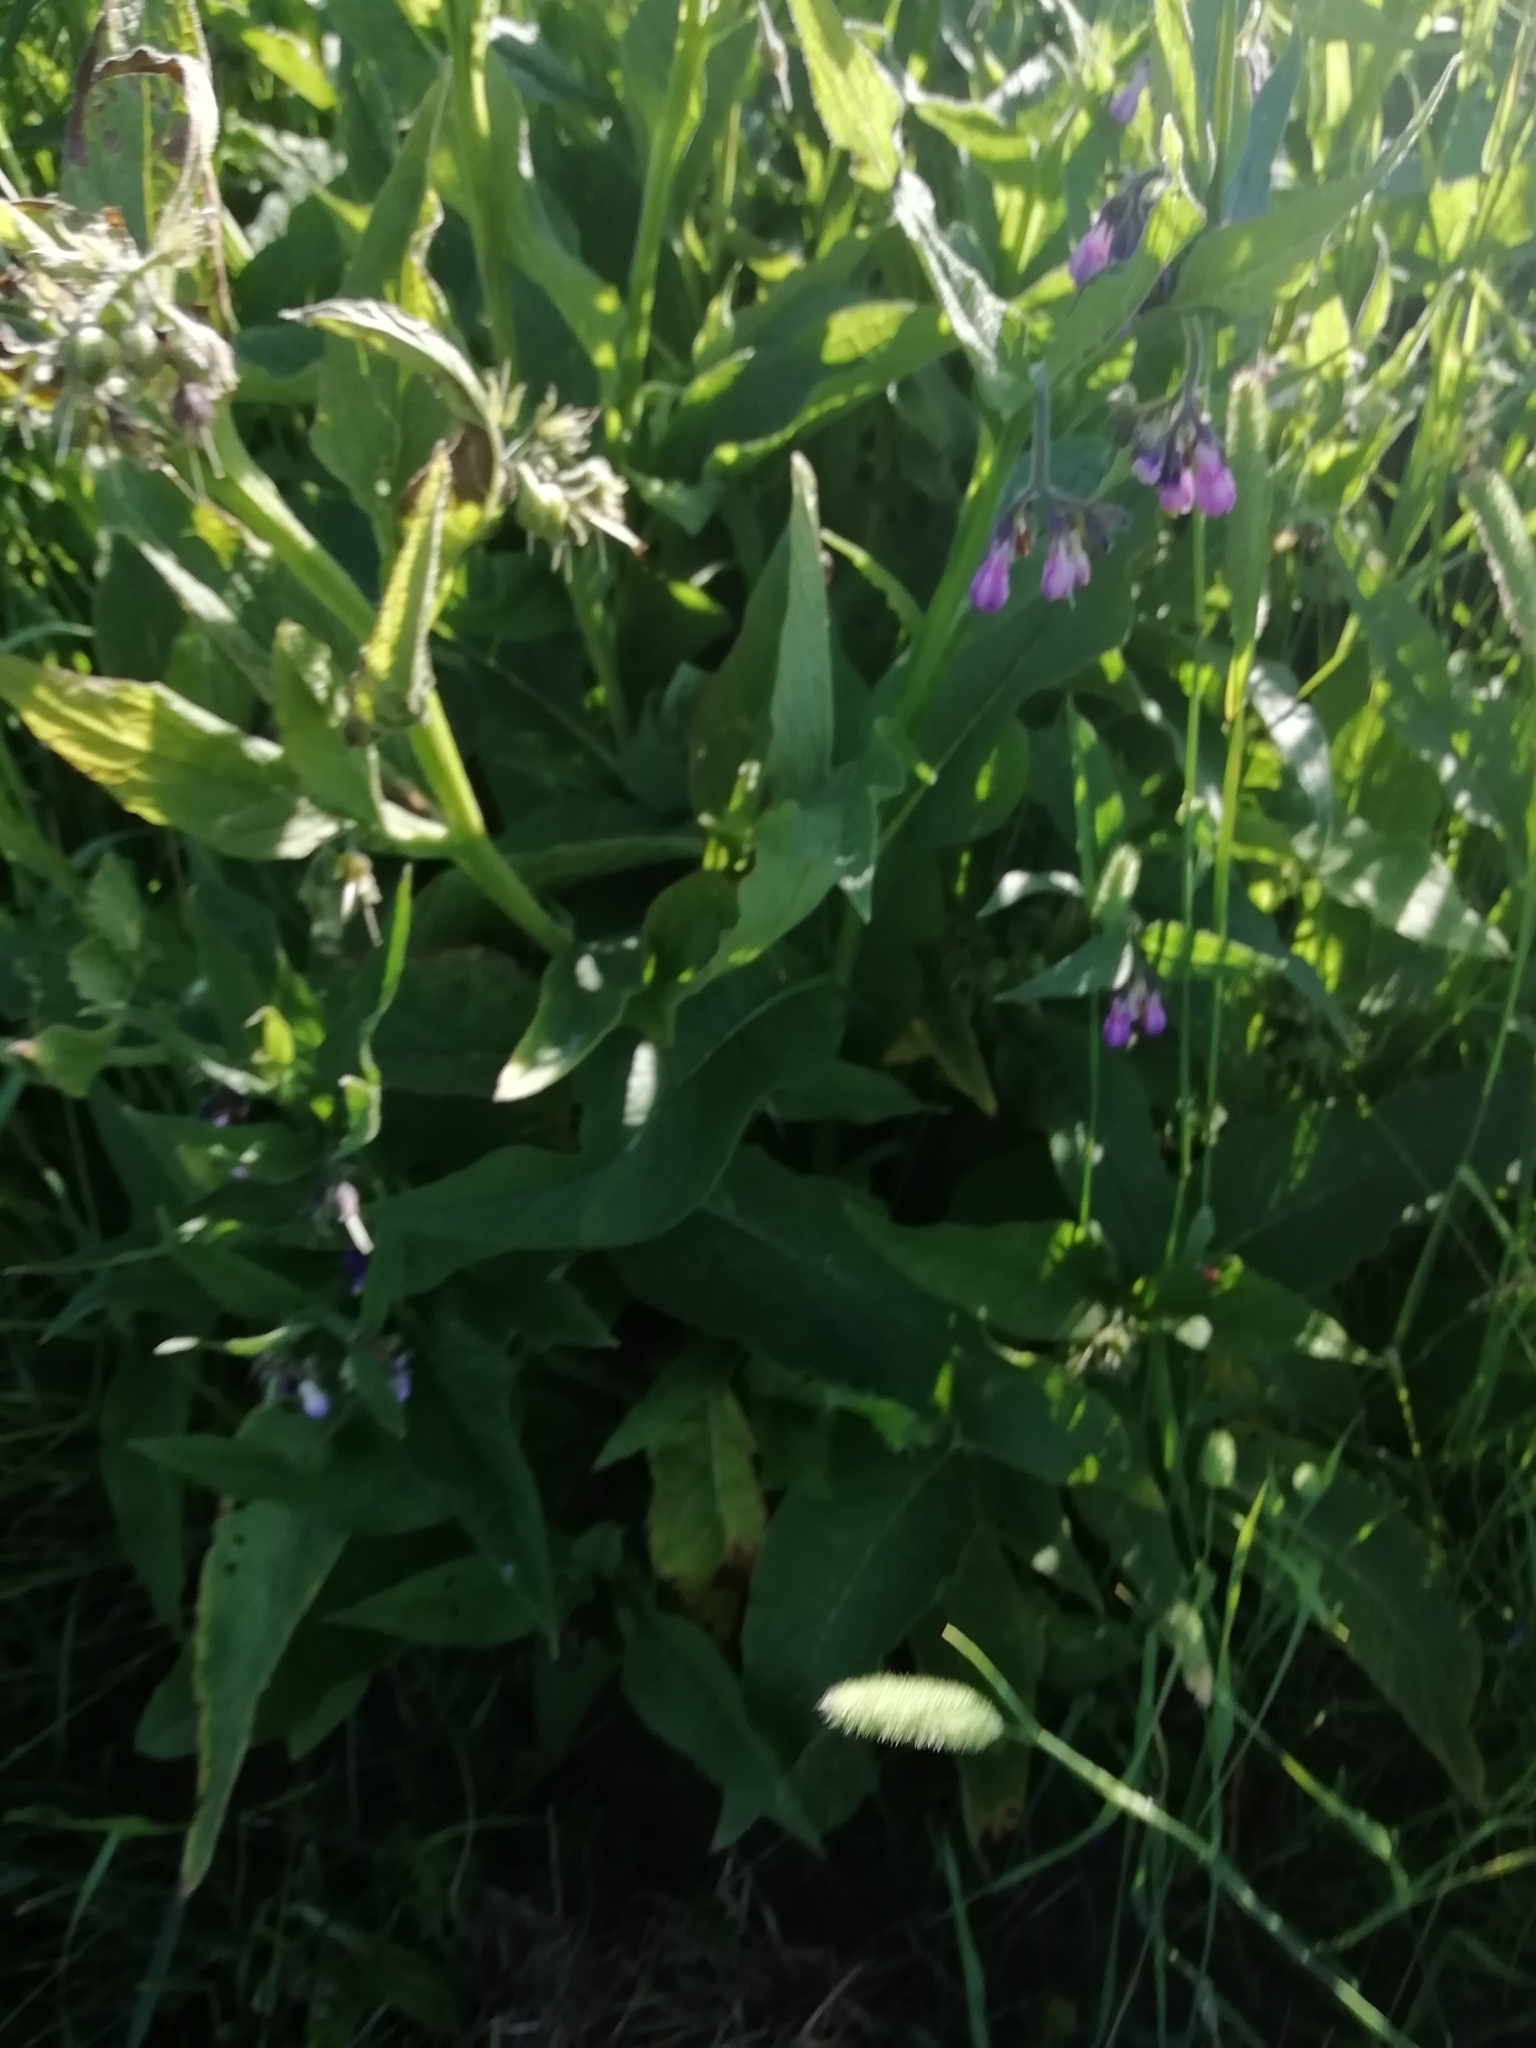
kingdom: Plantae
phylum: Tracheophyta
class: Magnoliopsida
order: Boraginales
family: Boraginaceae
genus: Symphytum
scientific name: Symphytum officinale
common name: Common comfrey
